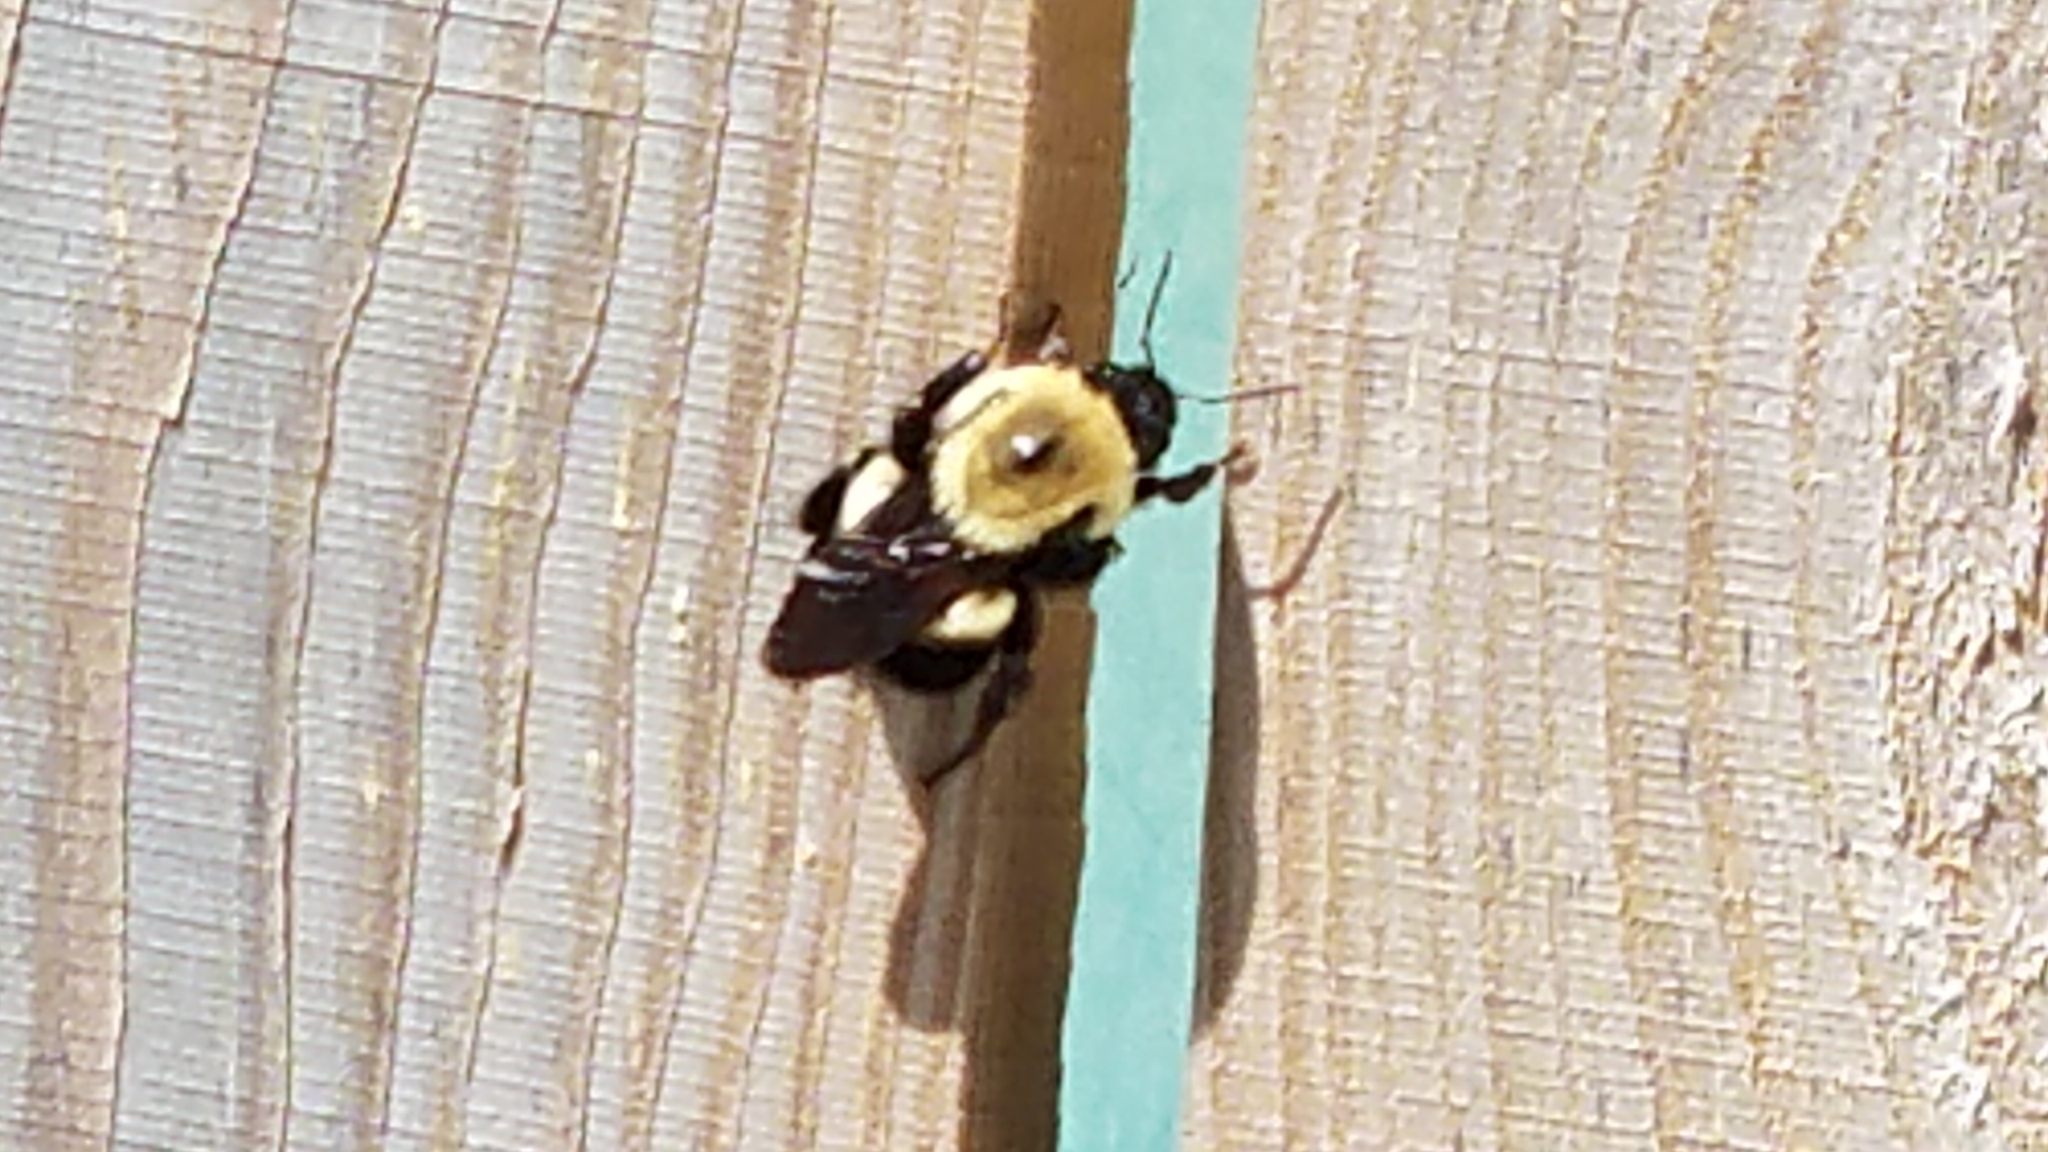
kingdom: Animalia
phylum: Arthropoda
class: Insecta
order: Hymenoptera
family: Apidae
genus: Bombus
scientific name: Bombus griseocollis
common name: Brown-belted bumble bee
